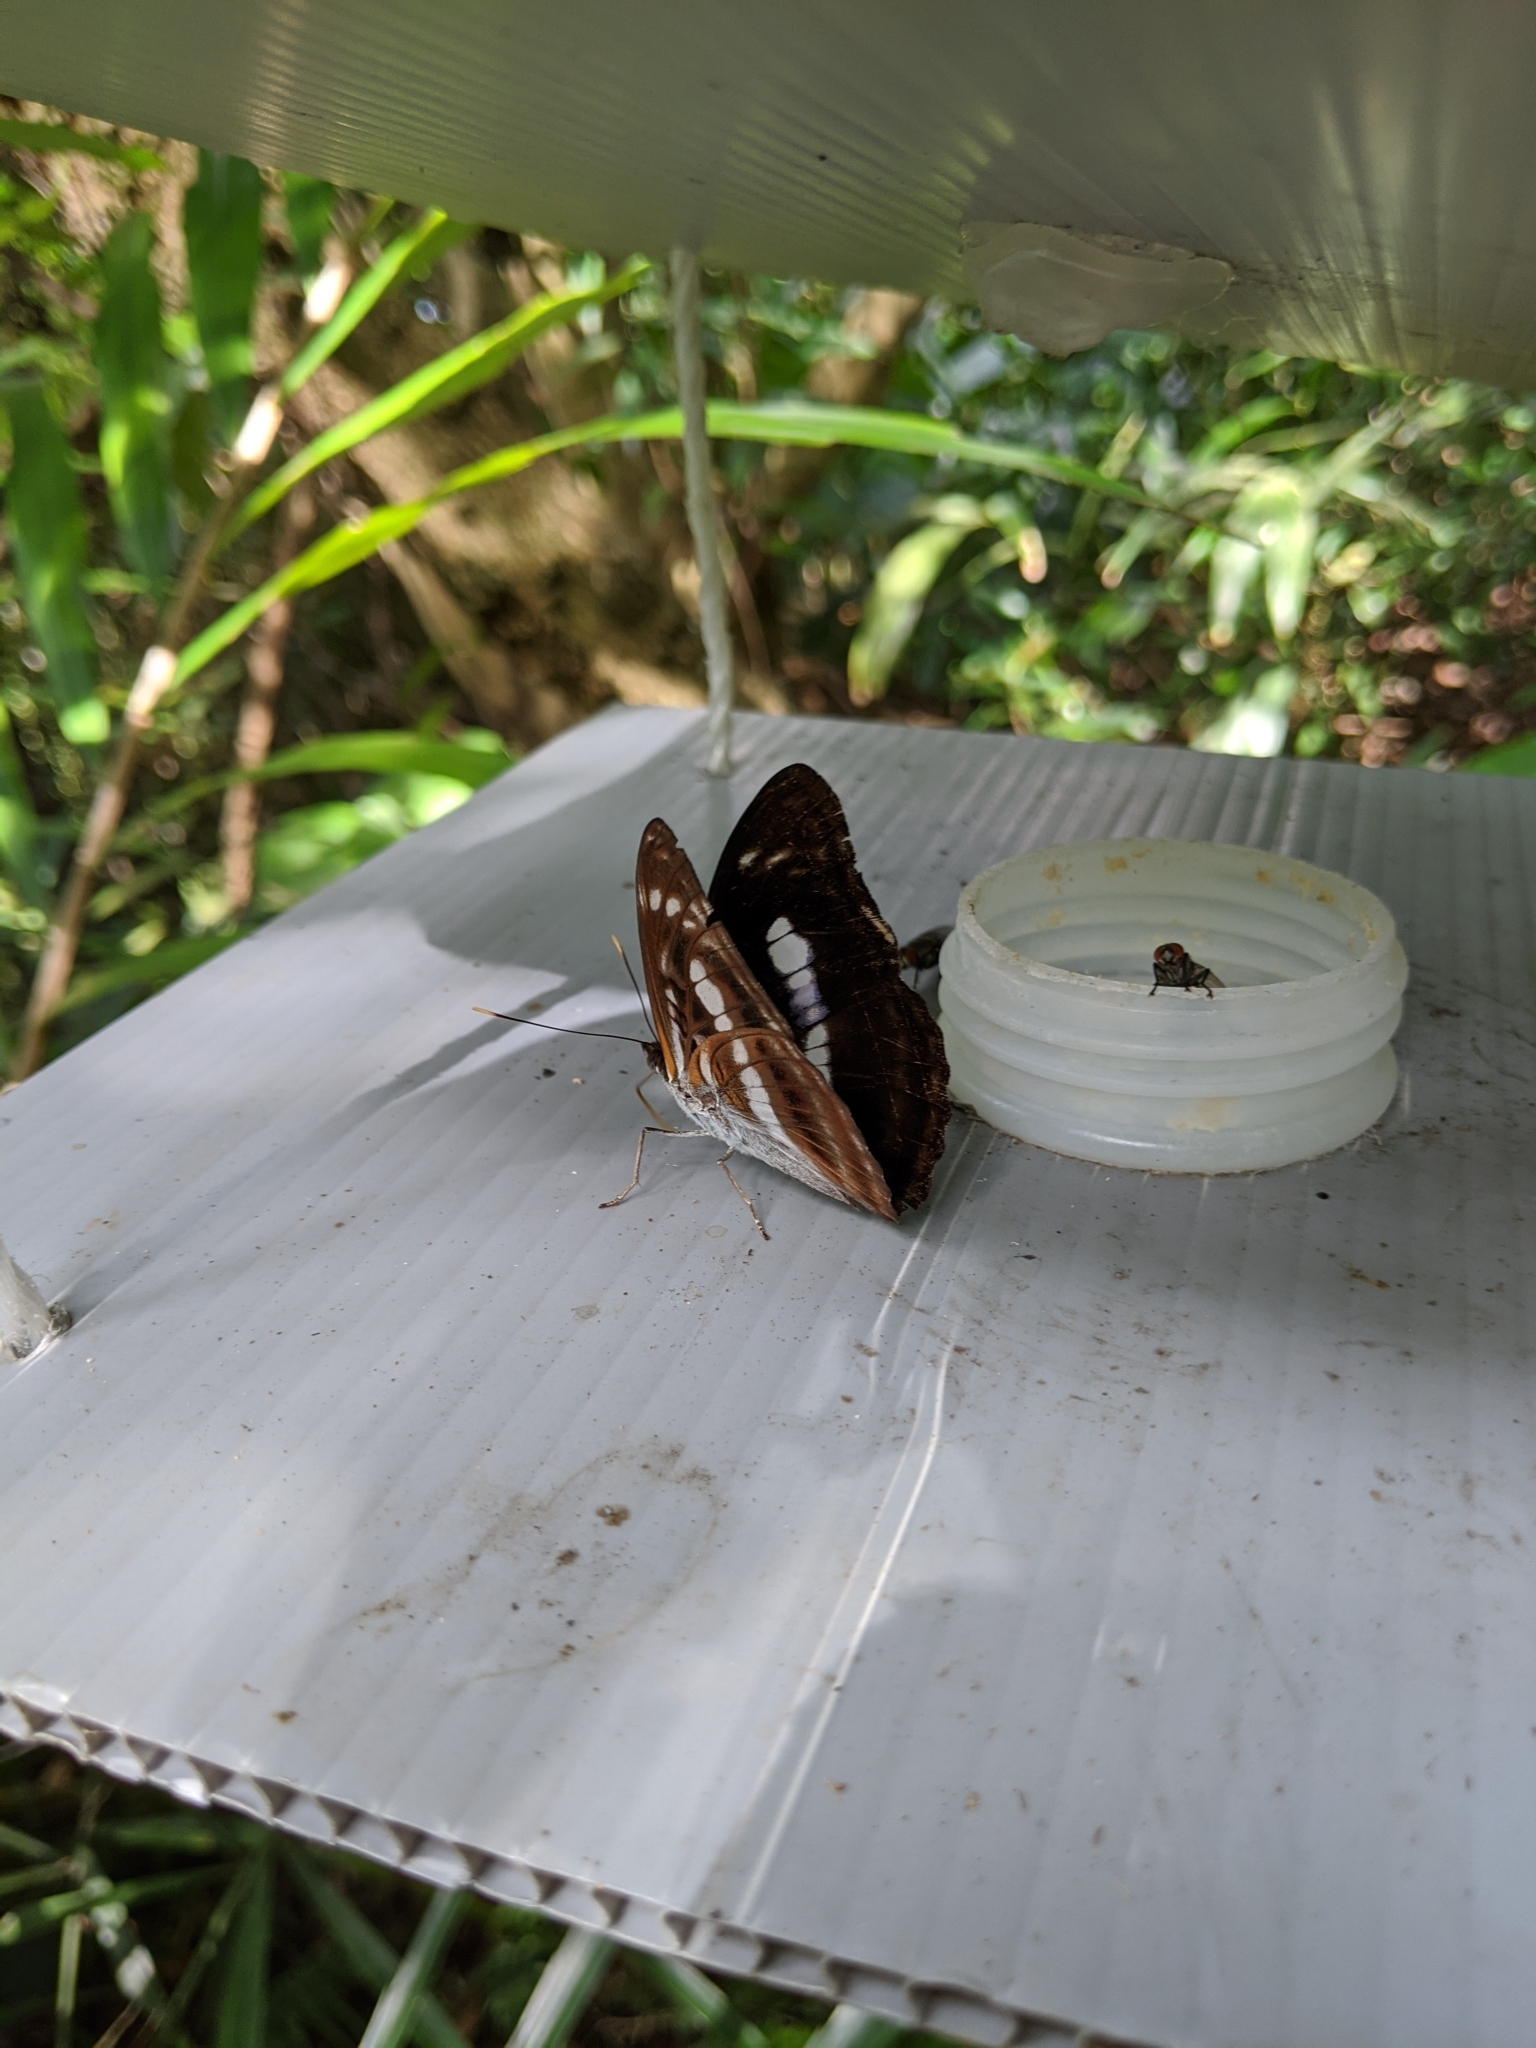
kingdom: Animalia
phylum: Arthropoda
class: Insecta
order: Lepidoptera
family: Nymphalidae
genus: Parathyma
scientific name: Parathyma selenophora
